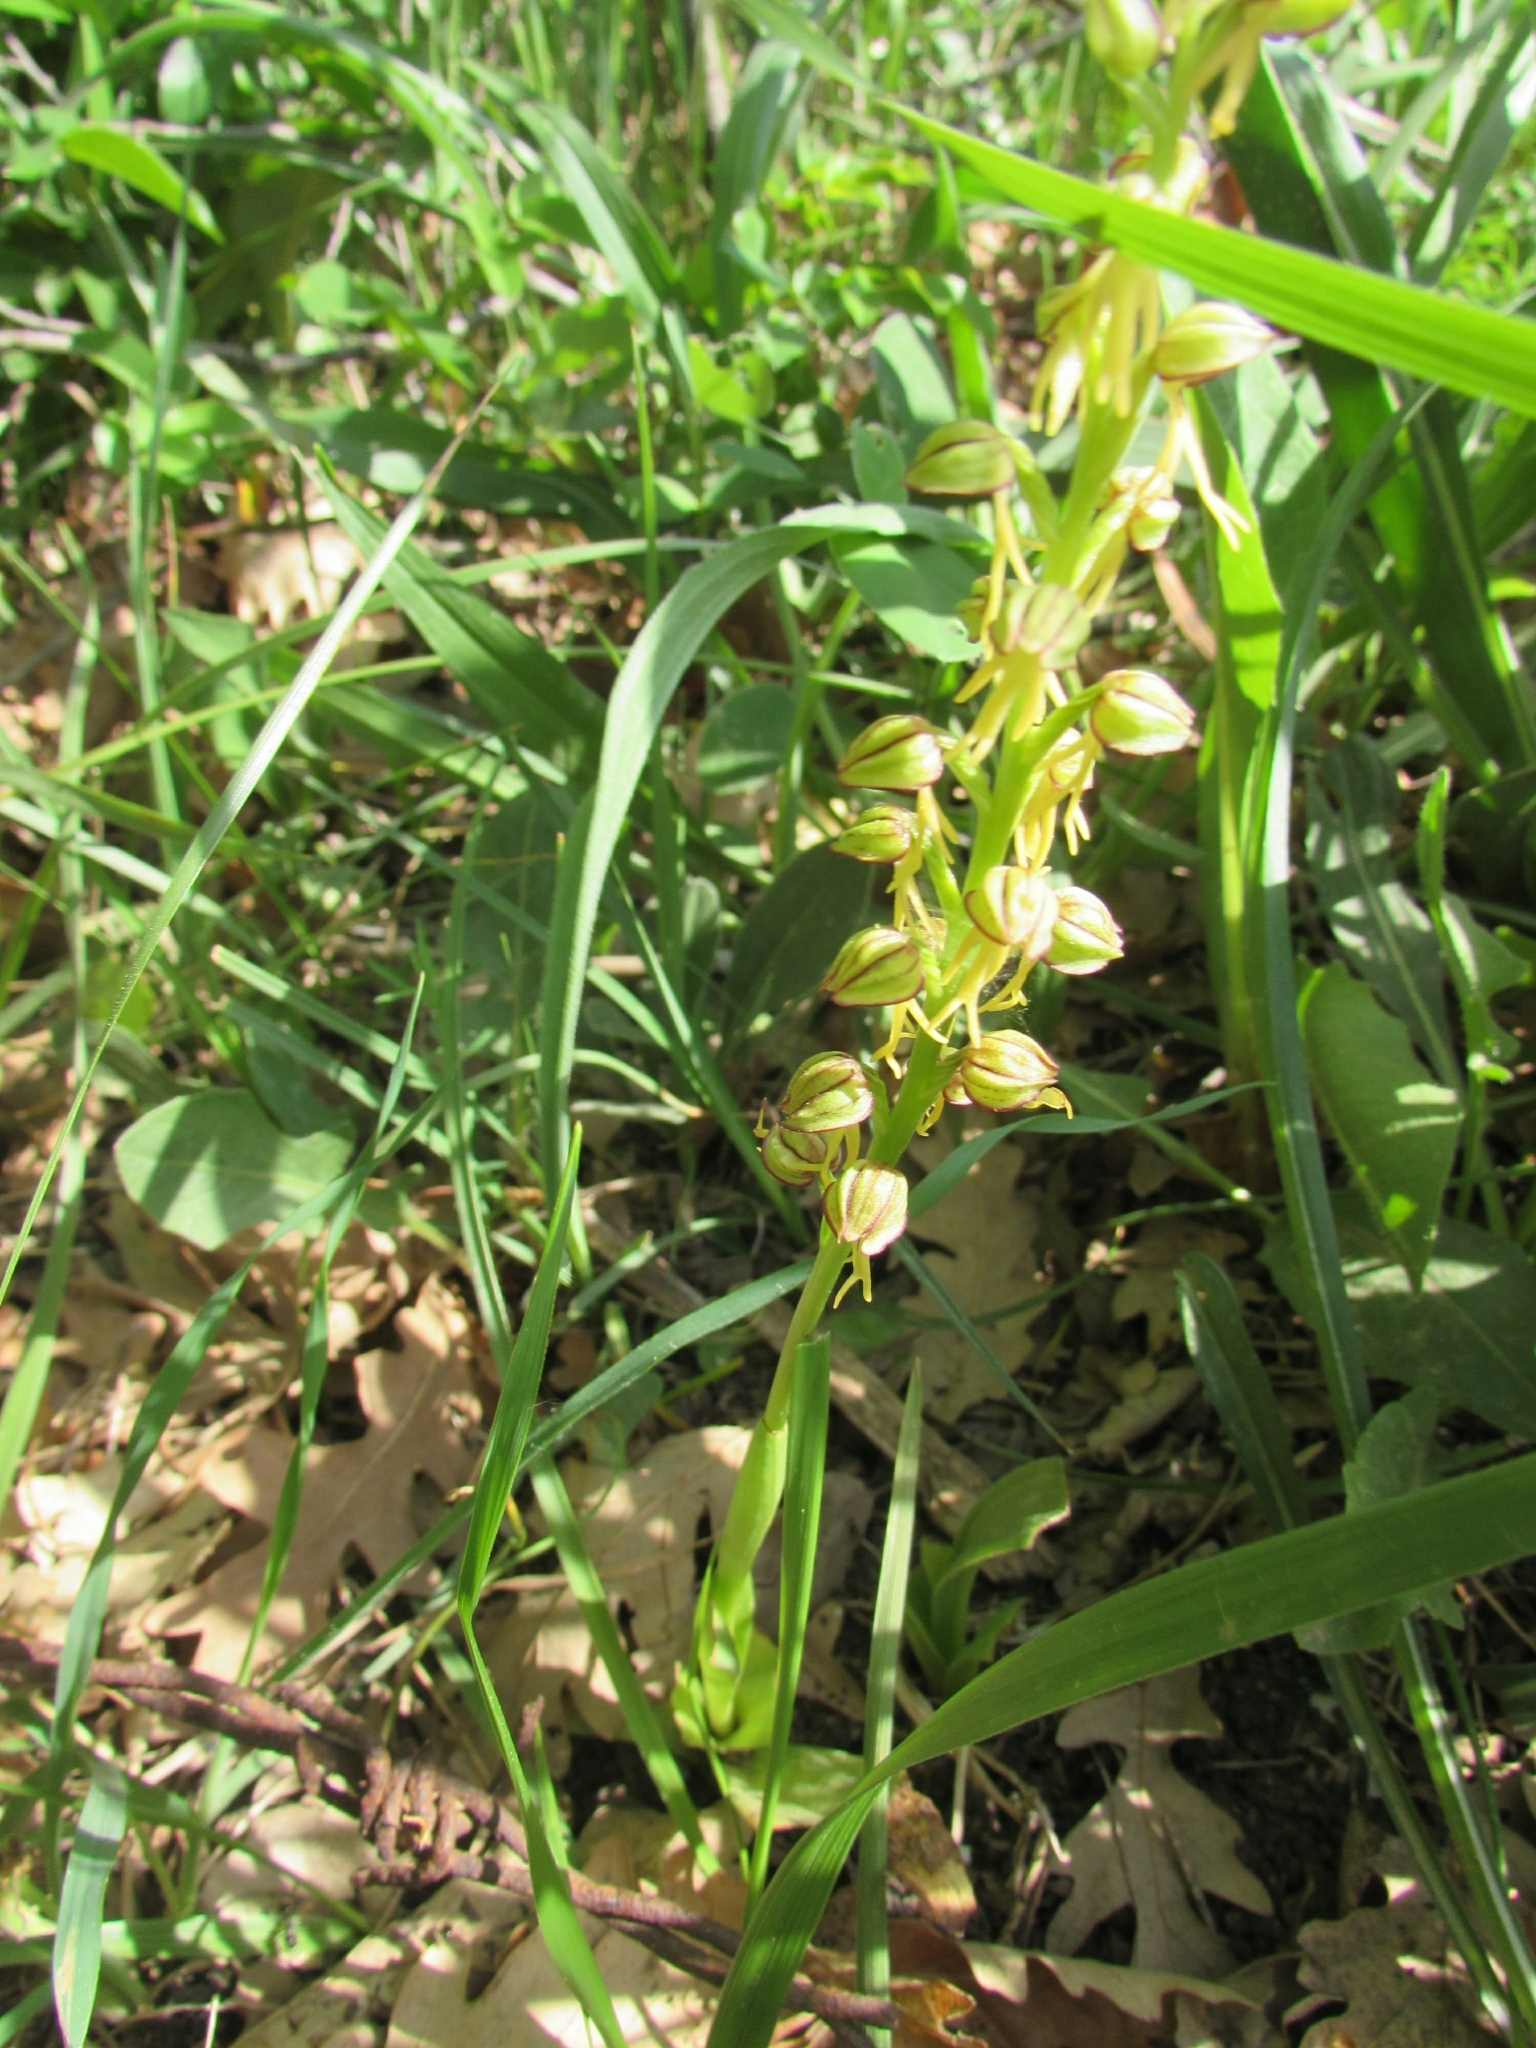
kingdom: Plantae
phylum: Tracheophyta
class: Liliopsida
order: Asparagales
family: Orchidaceae
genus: Orchis
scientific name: Orchis anthropophora
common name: Man orchid
